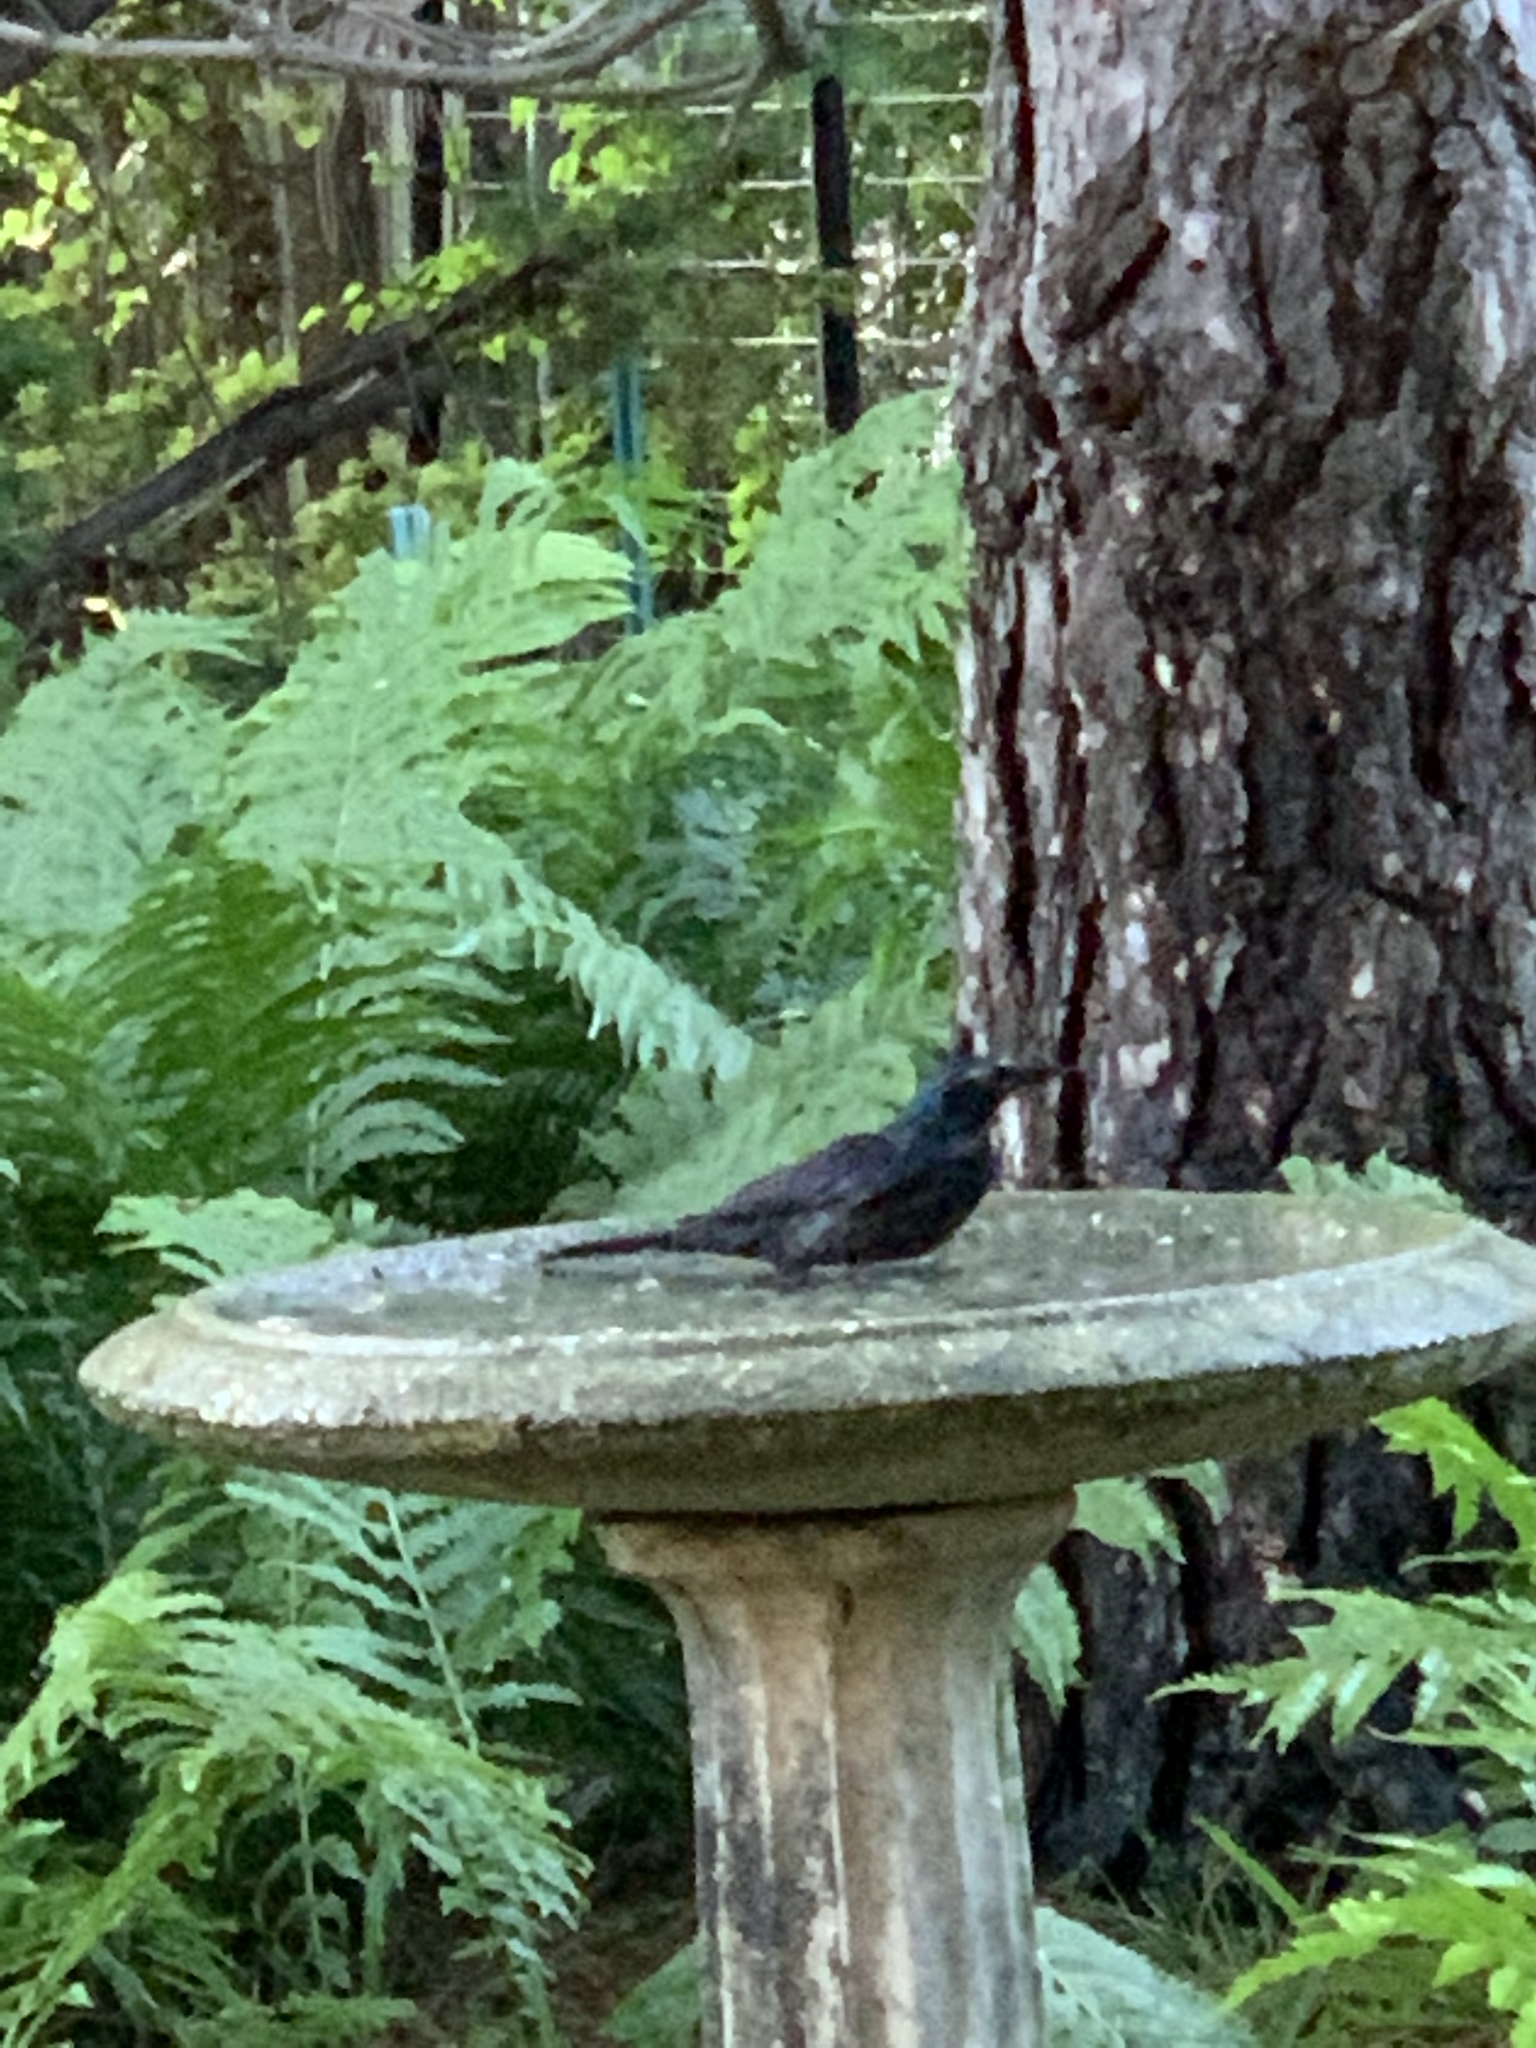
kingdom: Animalia
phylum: Chordata
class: Aves
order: Passeriformes
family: Icteridae
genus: Quiscalus
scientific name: Quiscalus quiscula
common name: Common grackle
